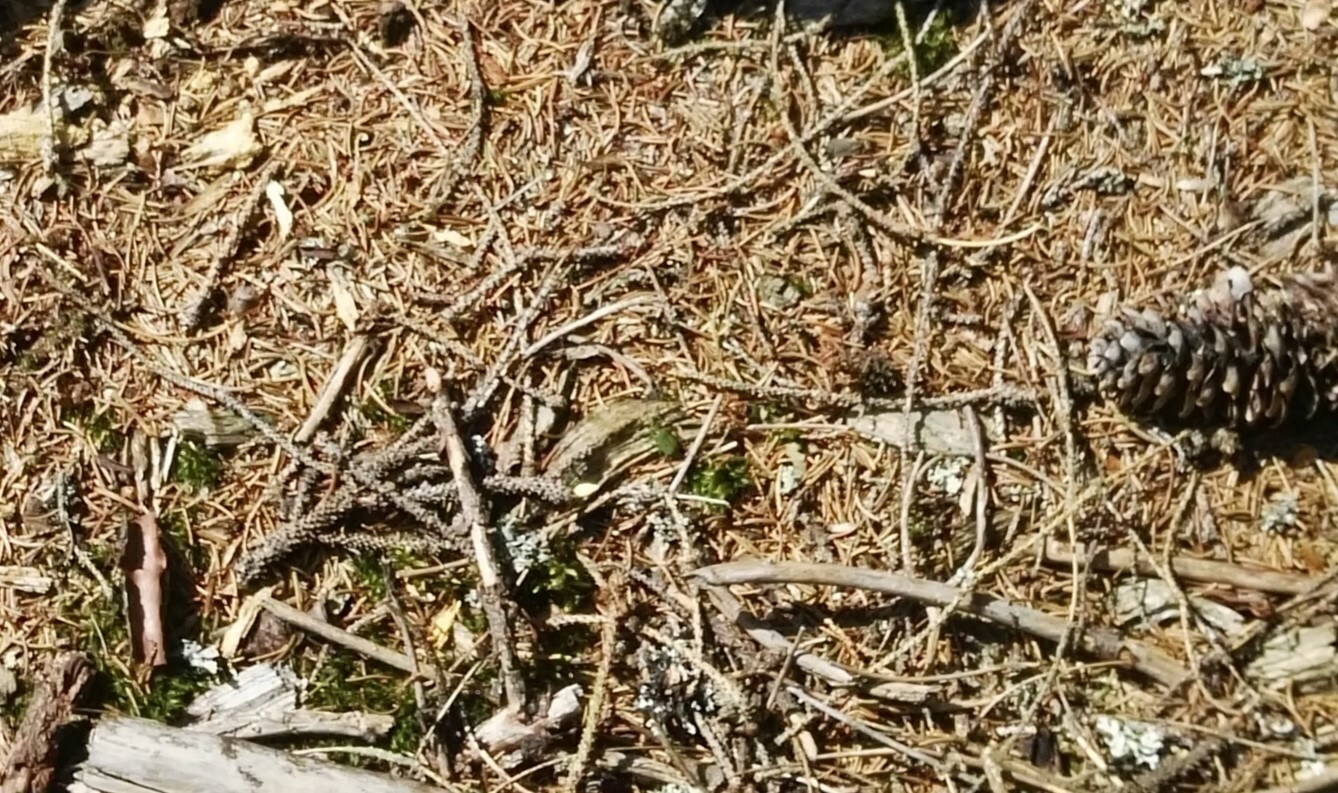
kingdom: Animalia
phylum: Arthropoda
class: Insecta
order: Coleoptera
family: Carabidae
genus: Cicindela
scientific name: Cicindela campestris
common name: Common tiger beetle
